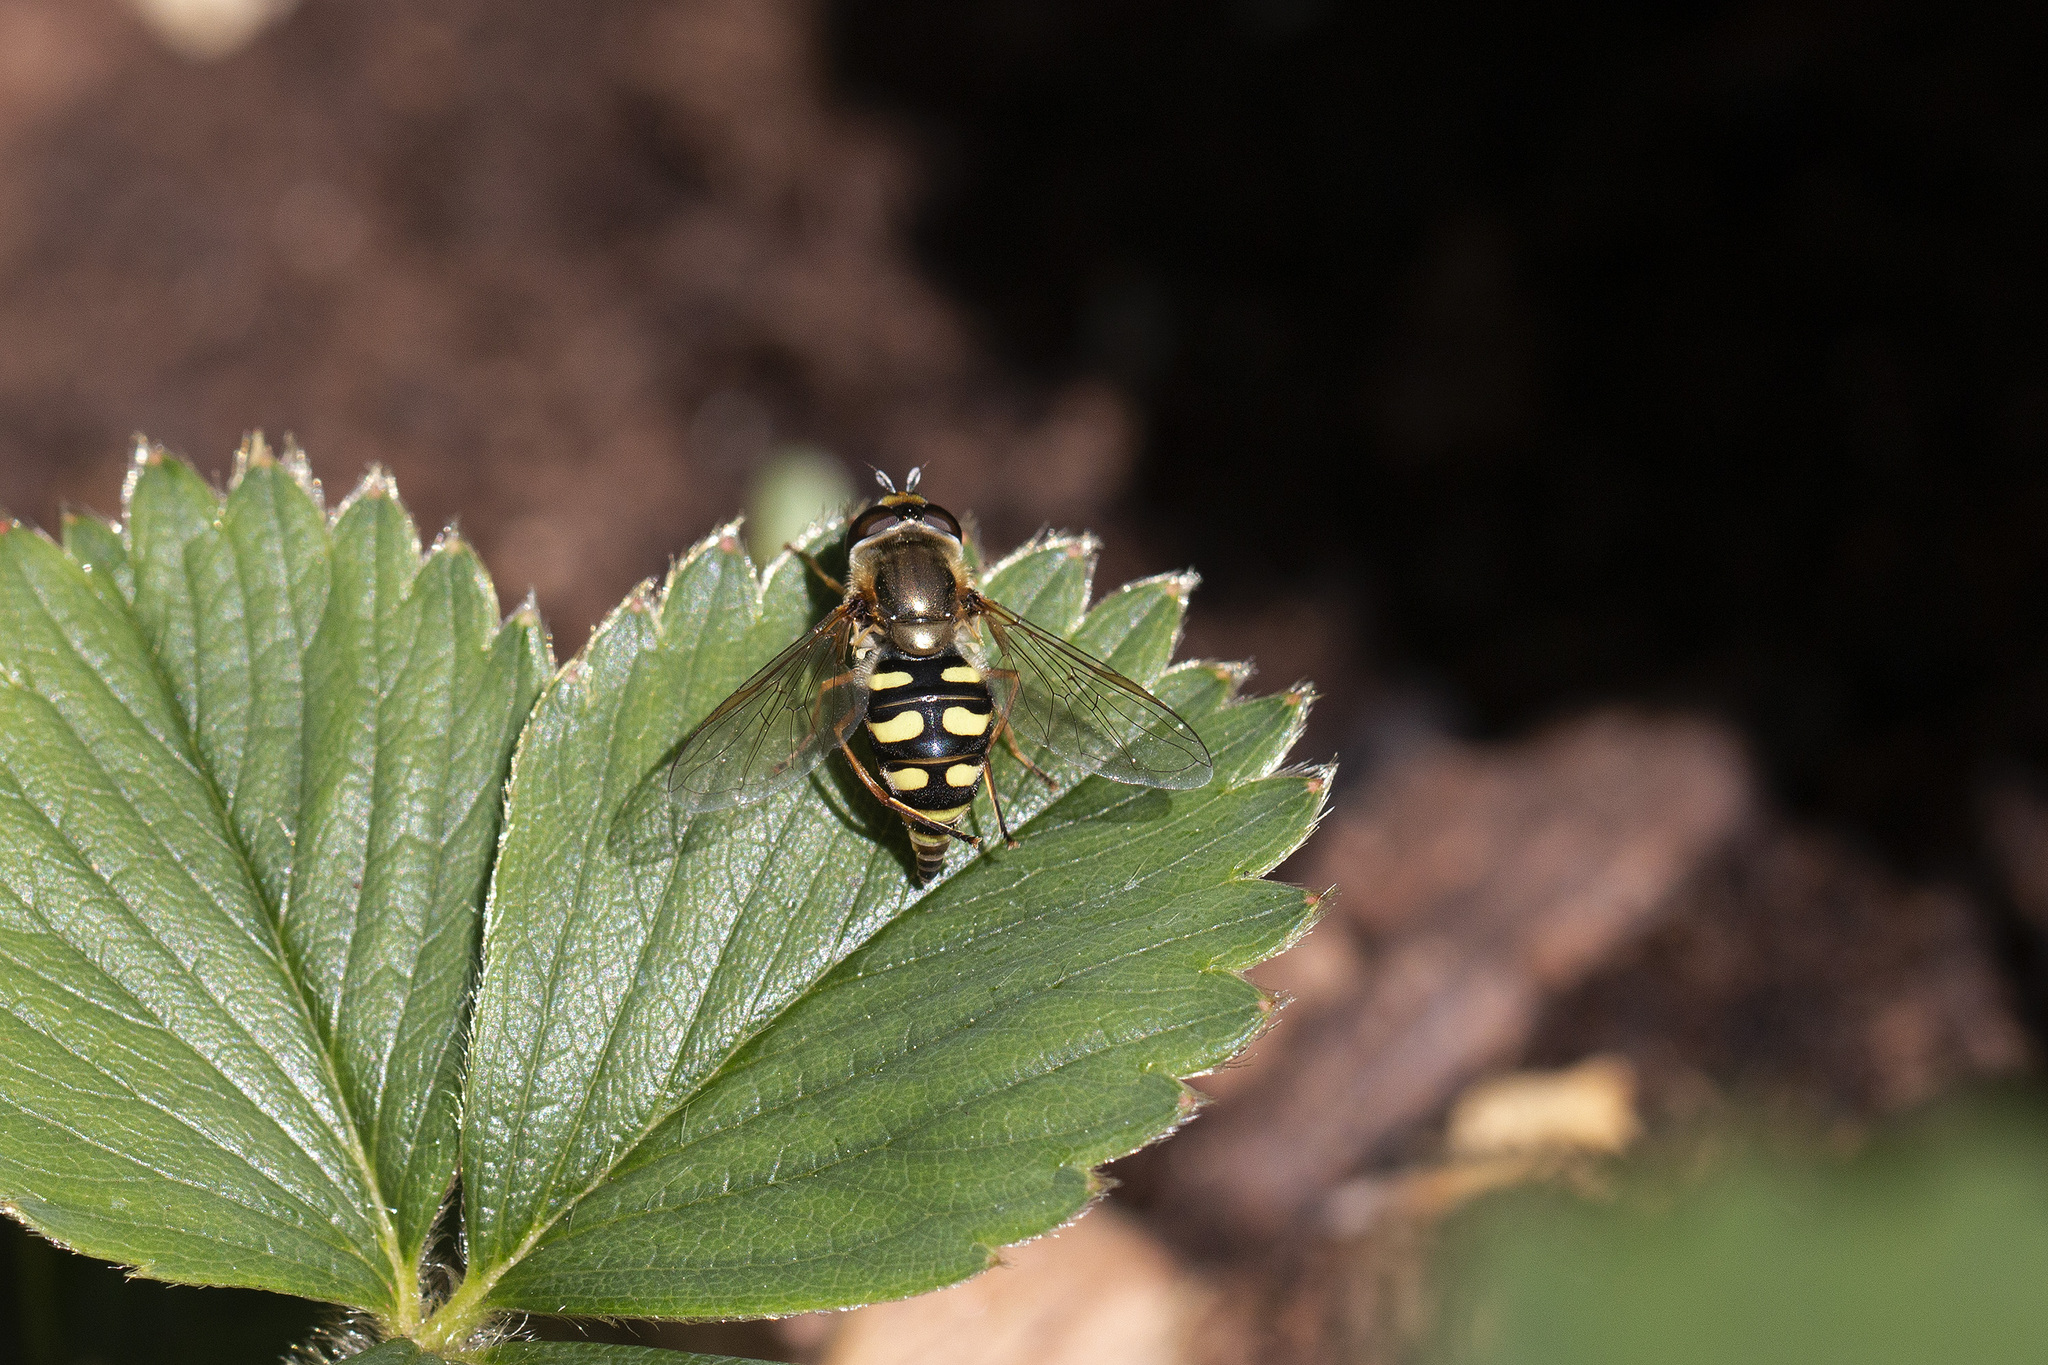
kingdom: Animalia
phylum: Arthropoda
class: Insecta
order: Diptera
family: Syrphidae
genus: Eupeodes
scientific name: Eupeodes corollae
